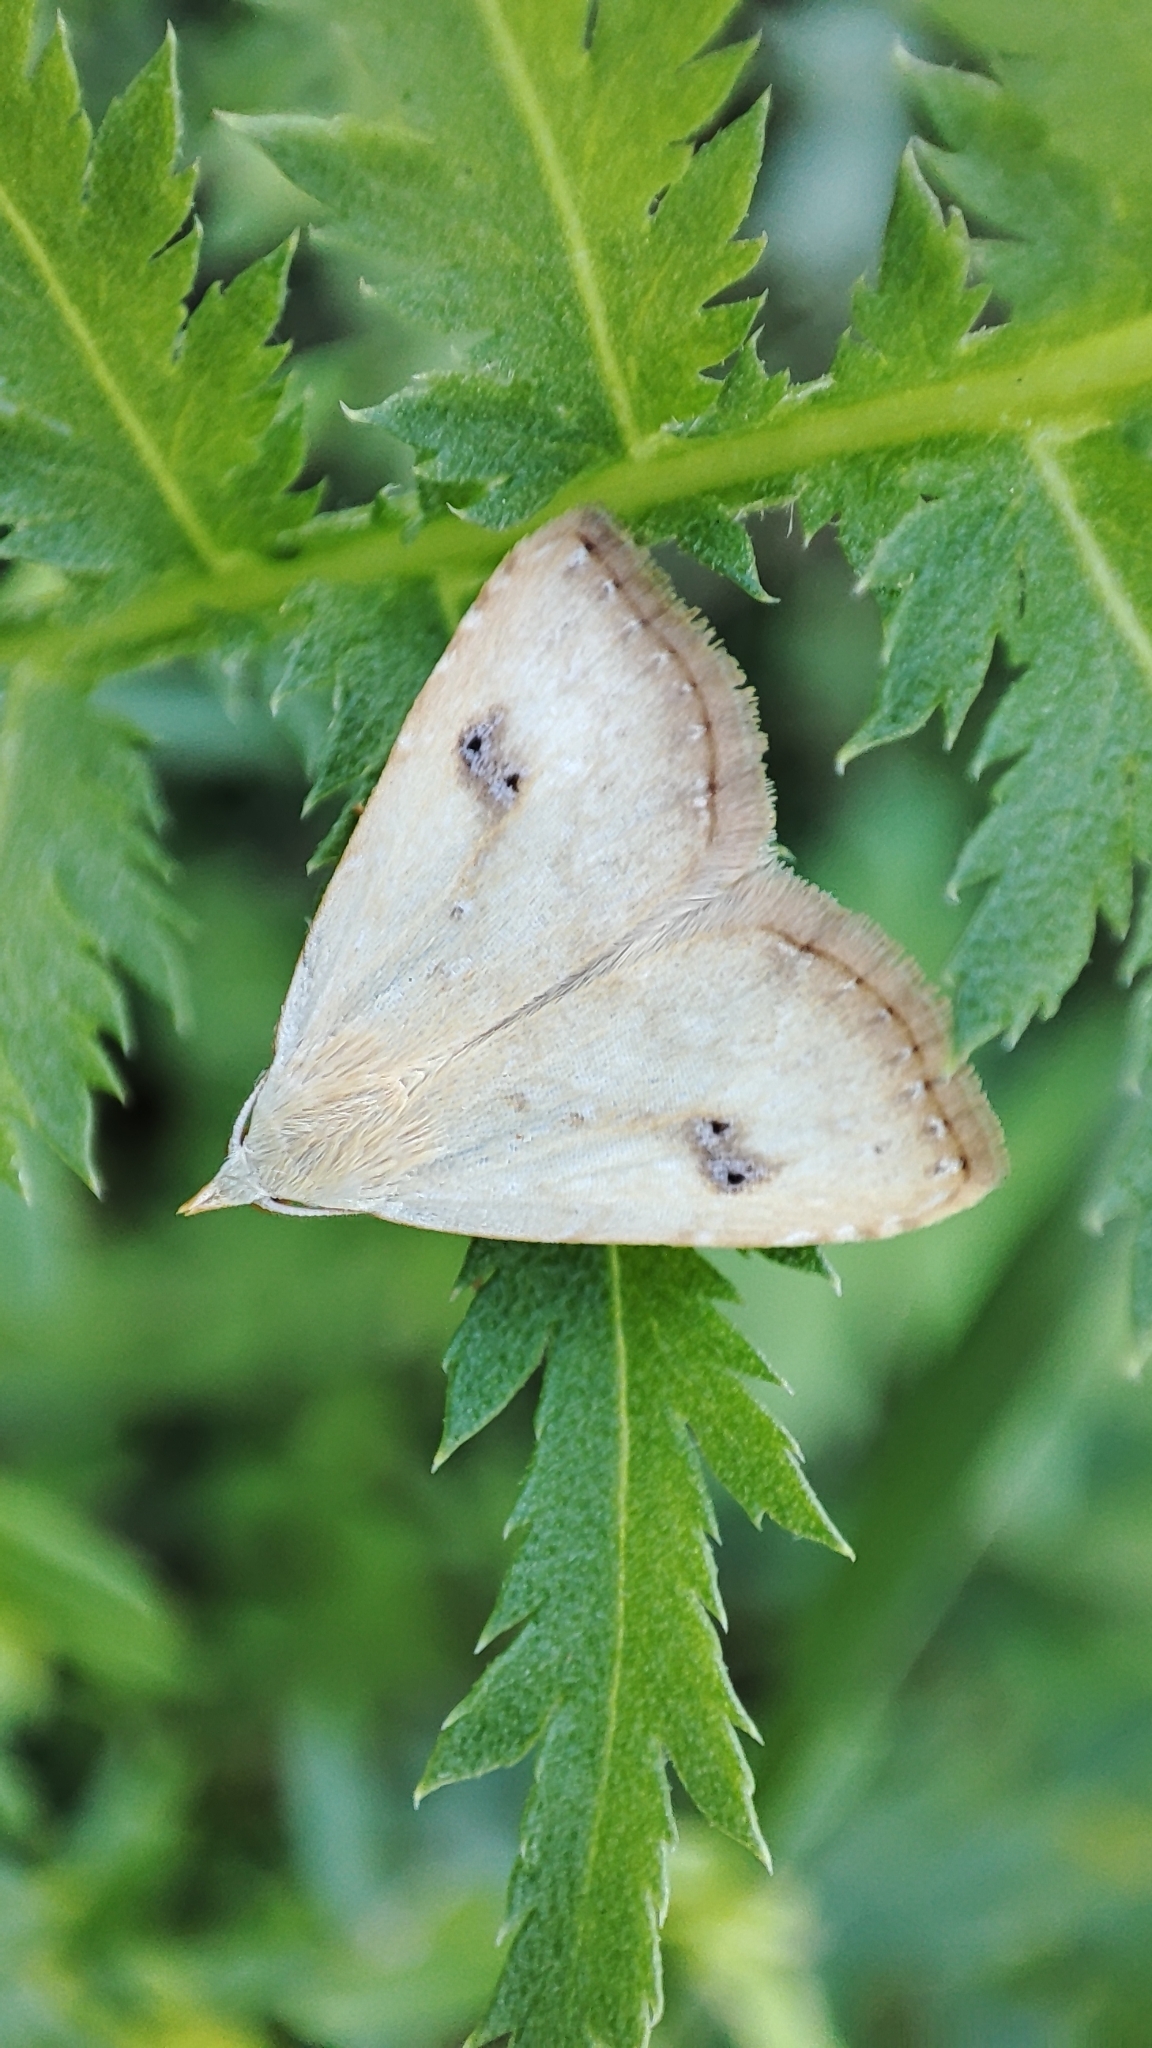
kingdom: Animalia
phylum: Arthropoda
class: Insecta
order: Lepidoptera
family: Erebidae
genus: Rivula
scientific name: Rivula sericealis
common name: Straw dot
